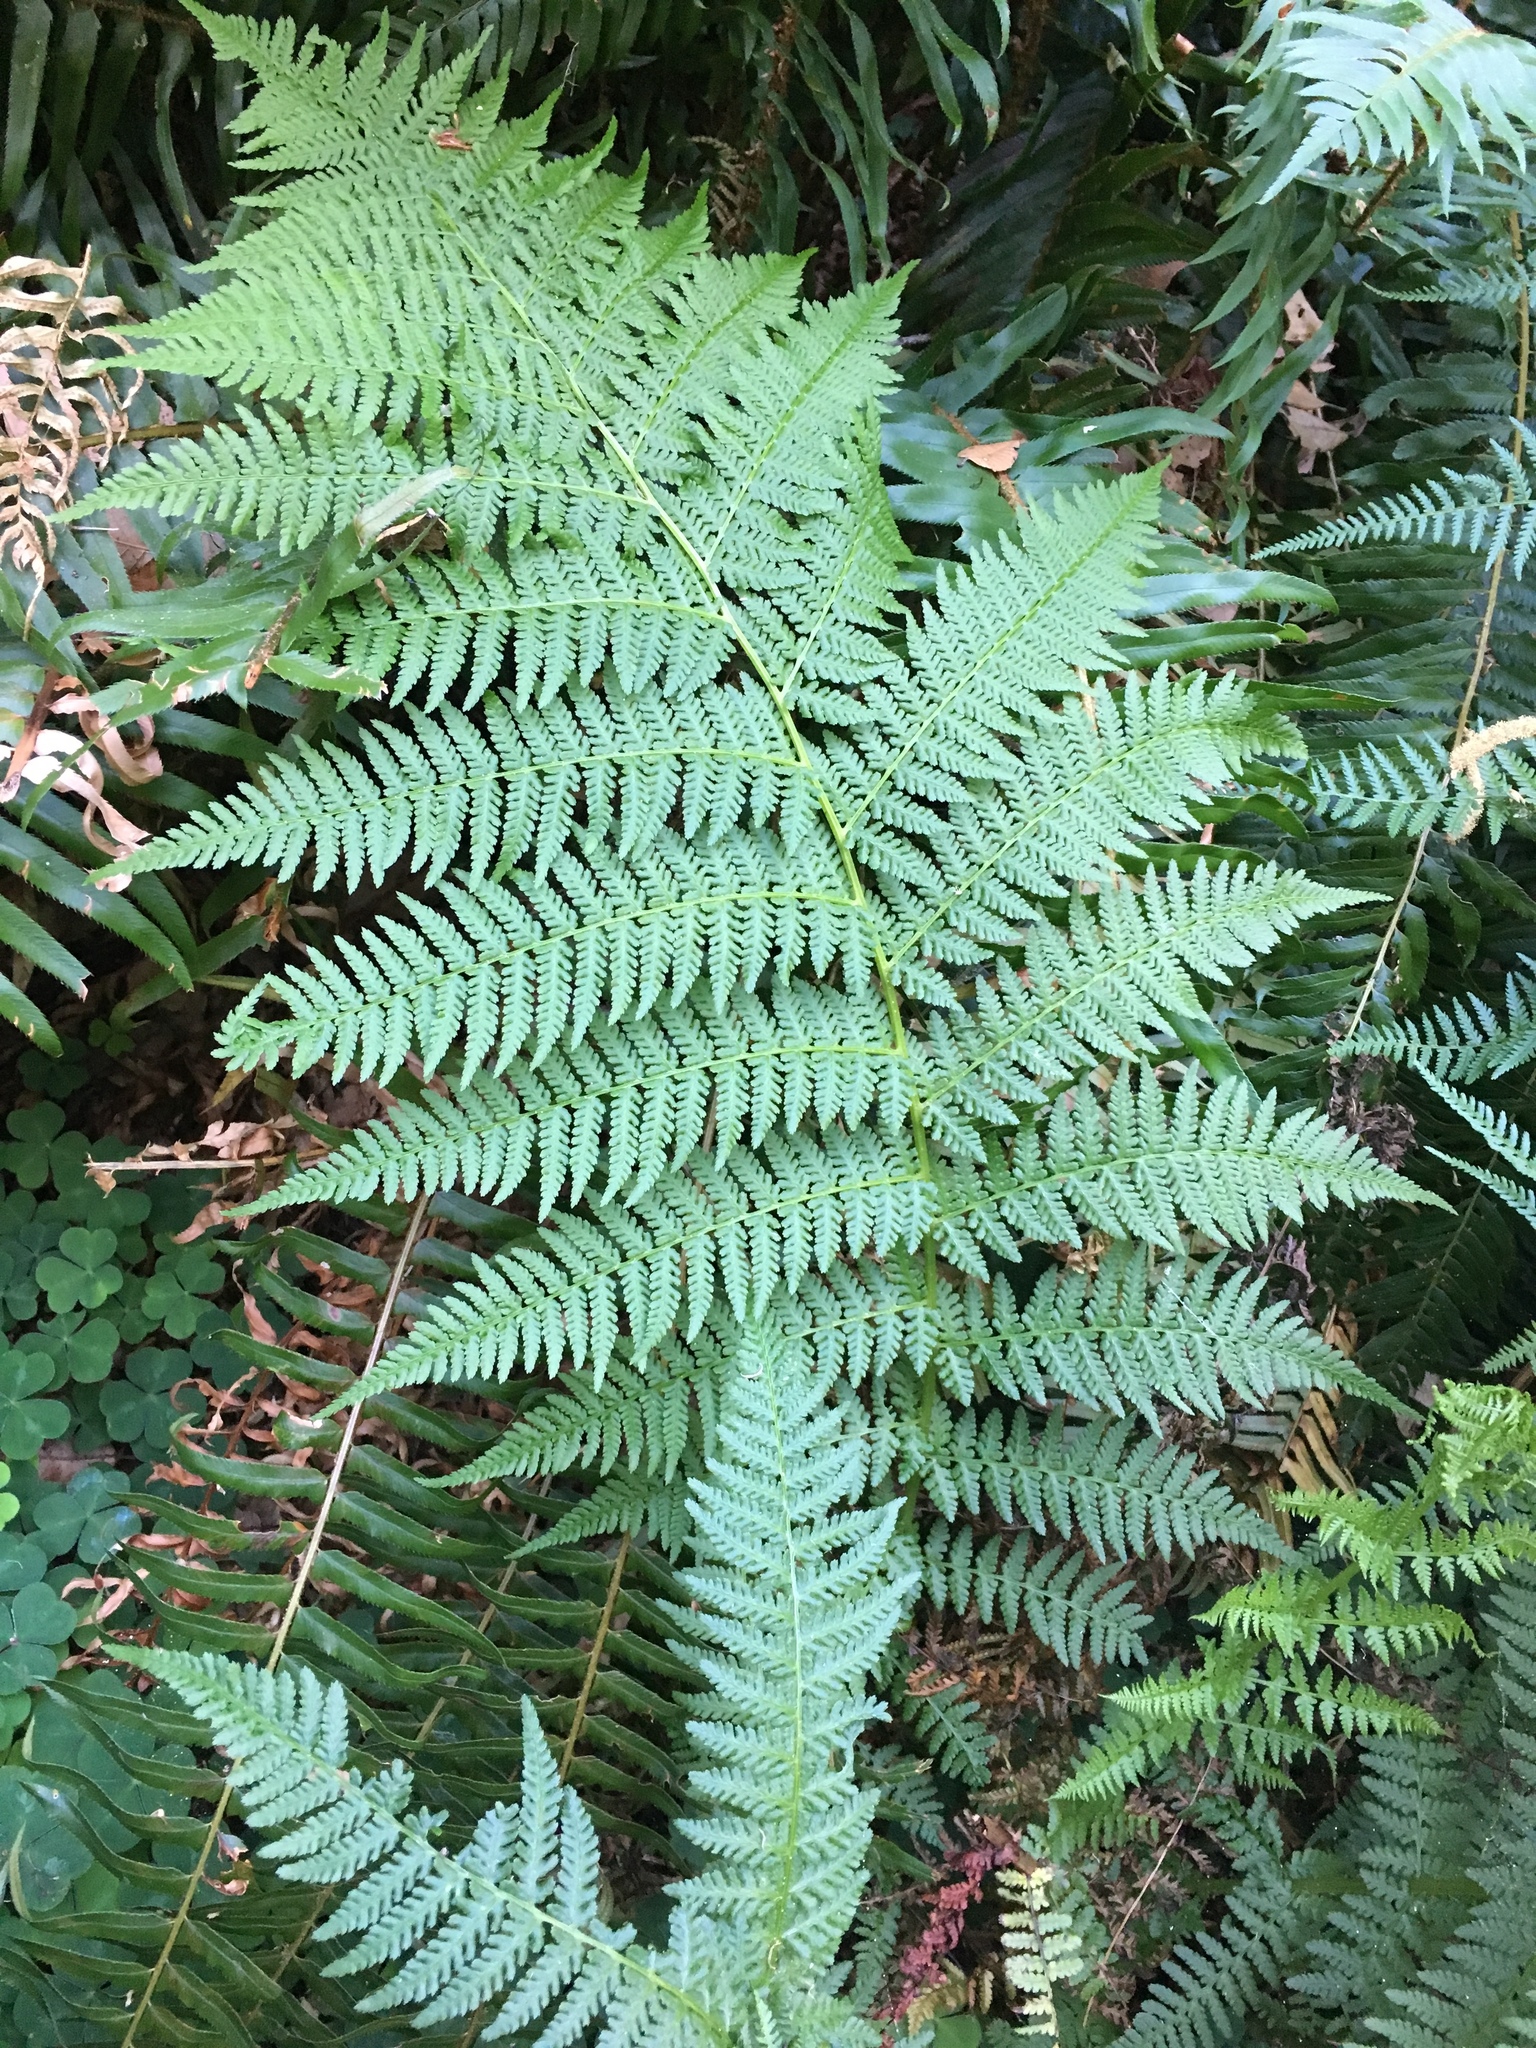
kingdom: Plantae
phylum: Tracheophyta
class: Polypodiopsida
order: Polypodiales
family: Athyriaceae
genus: Athyrium
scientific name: Athyrium cyclosorum
